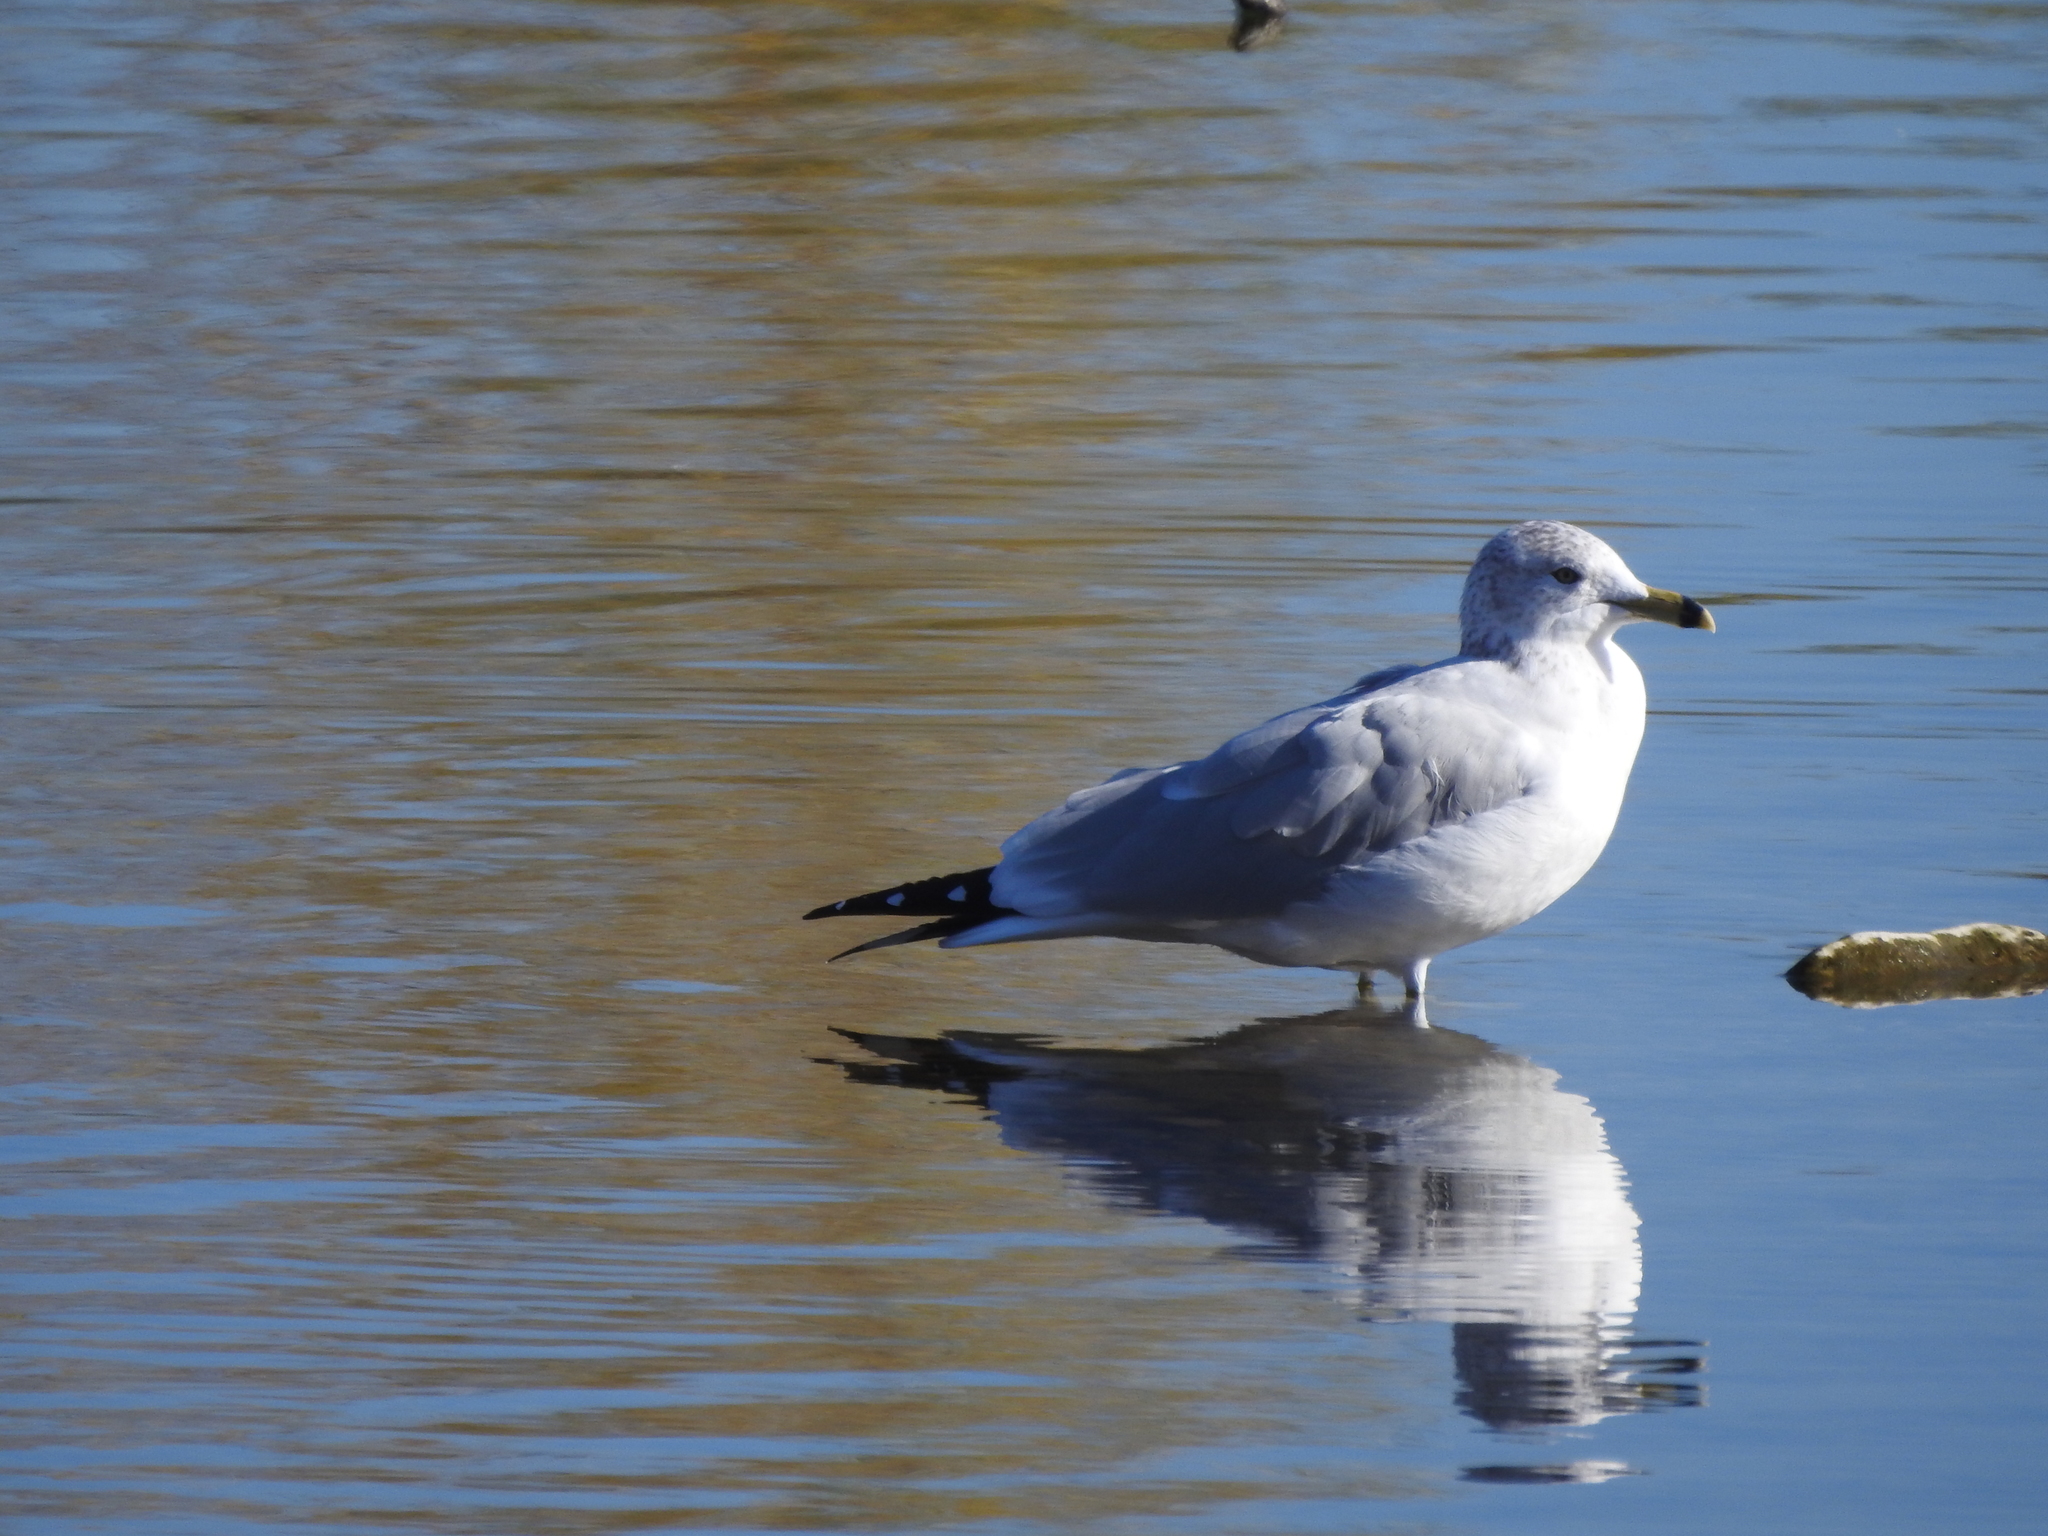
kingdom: Animalia
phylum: Chordata
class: Aves
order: Charadriiformes
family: Laridae
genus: Larus
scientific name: Larus delawarensis
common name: Ring-billed gull
